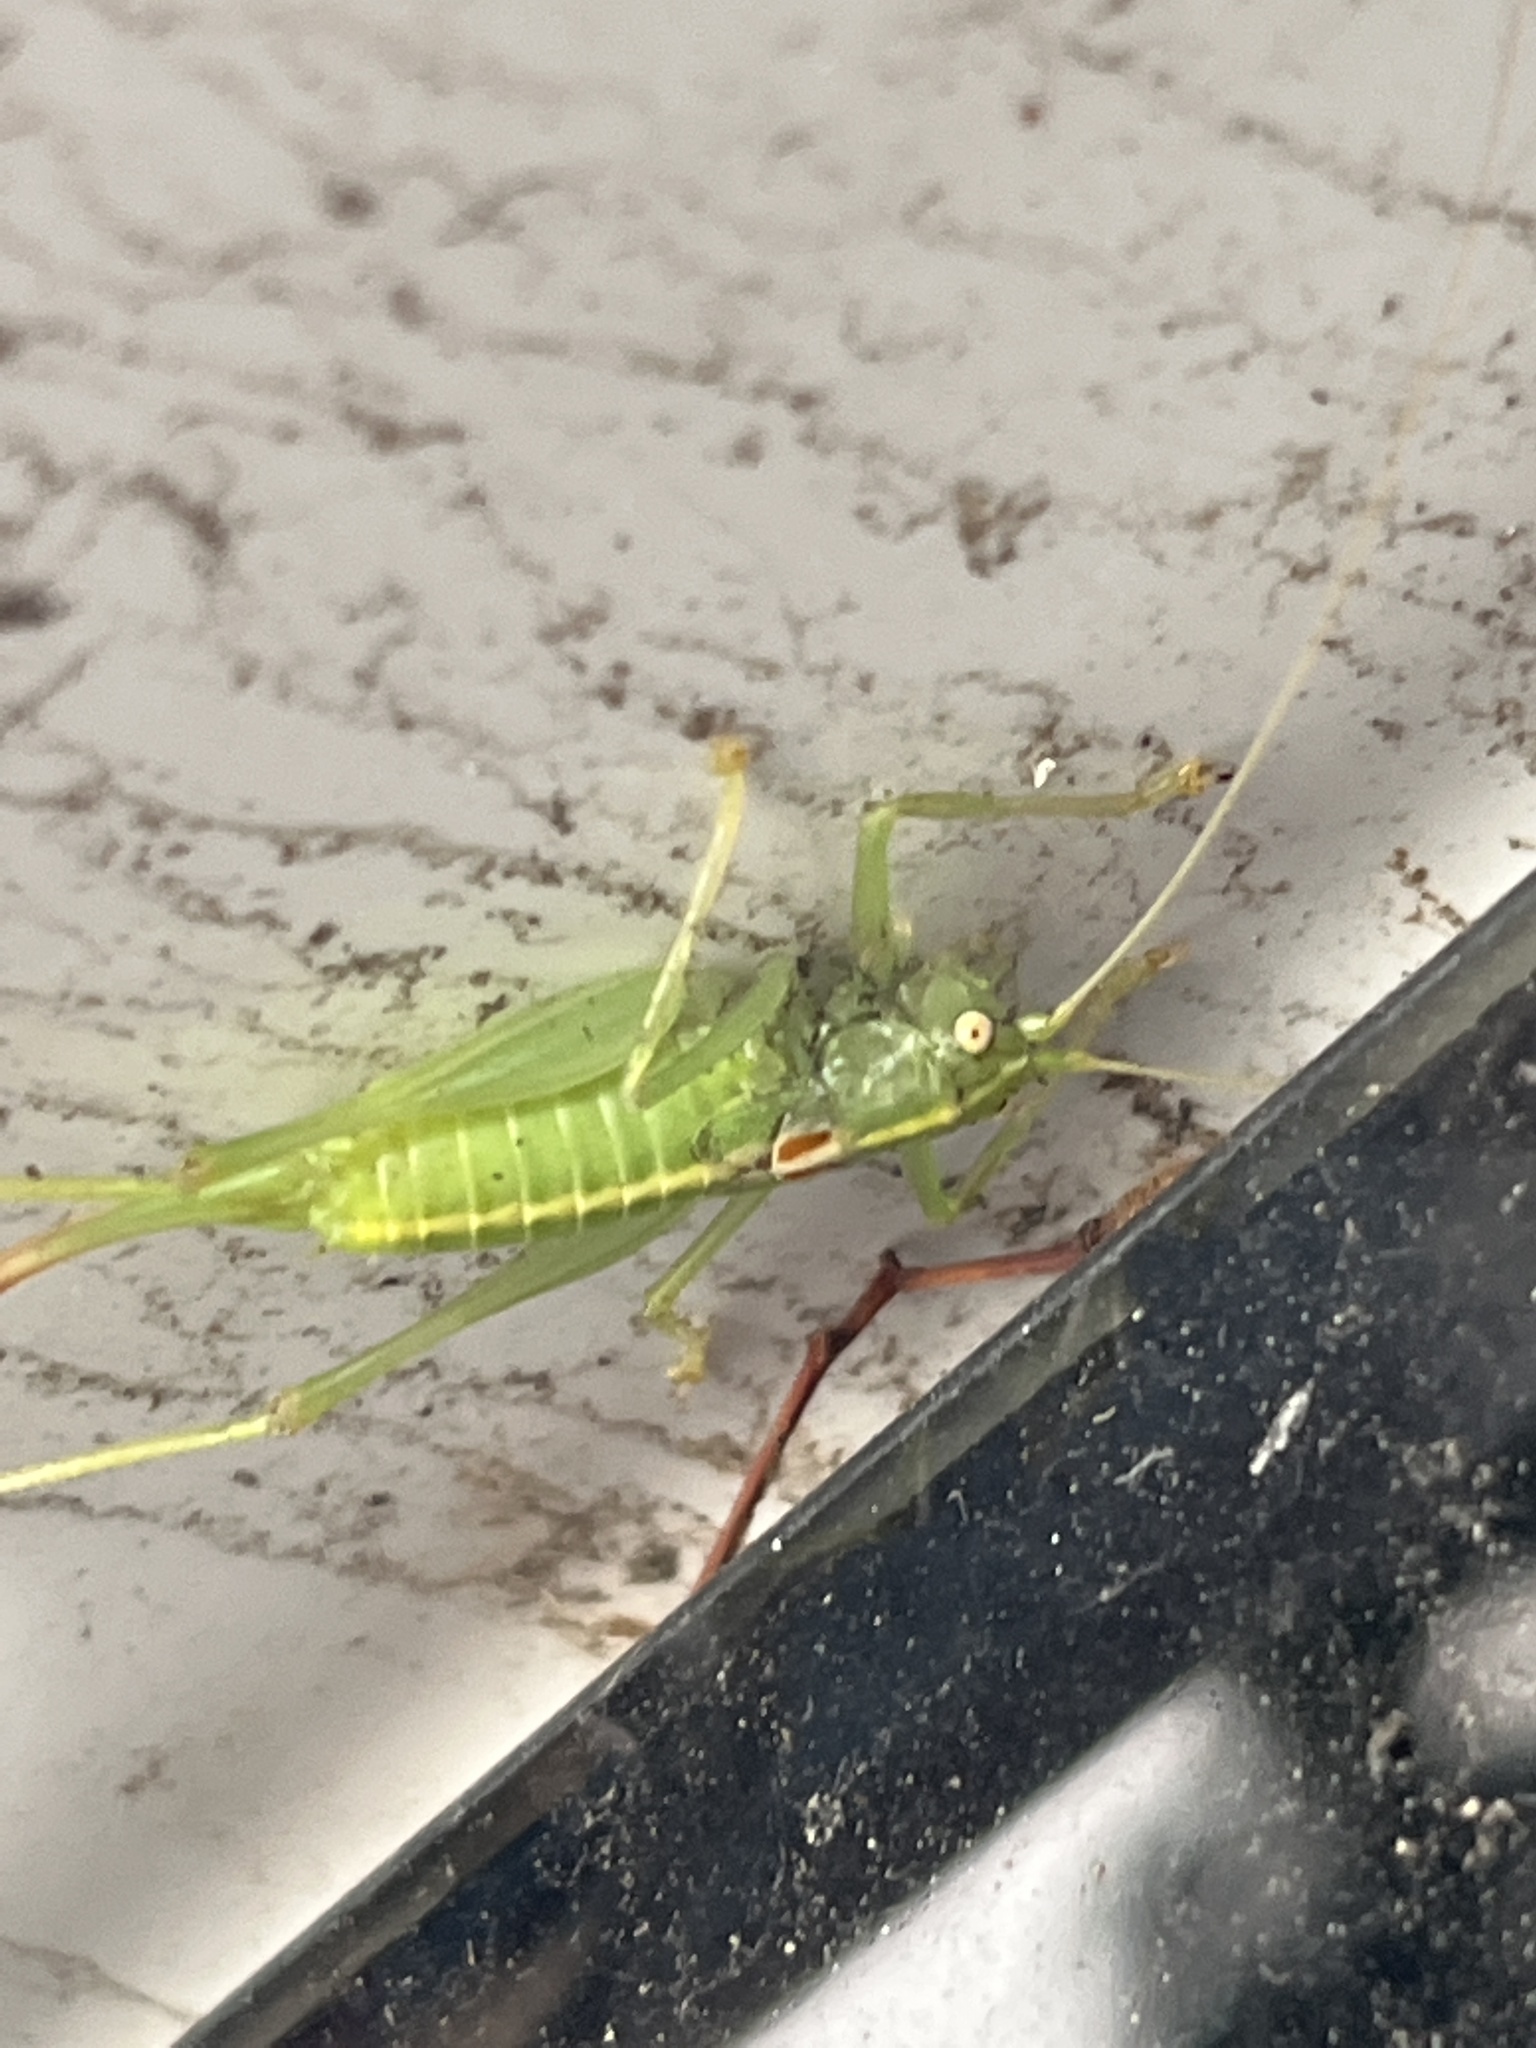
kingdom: Animalia
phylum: Arthropoda
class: Insecta
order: Orthoptera
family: Tettigoniidae
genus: Meconema
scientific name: Meconema meridionale
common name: Southern oak bush-cricket
